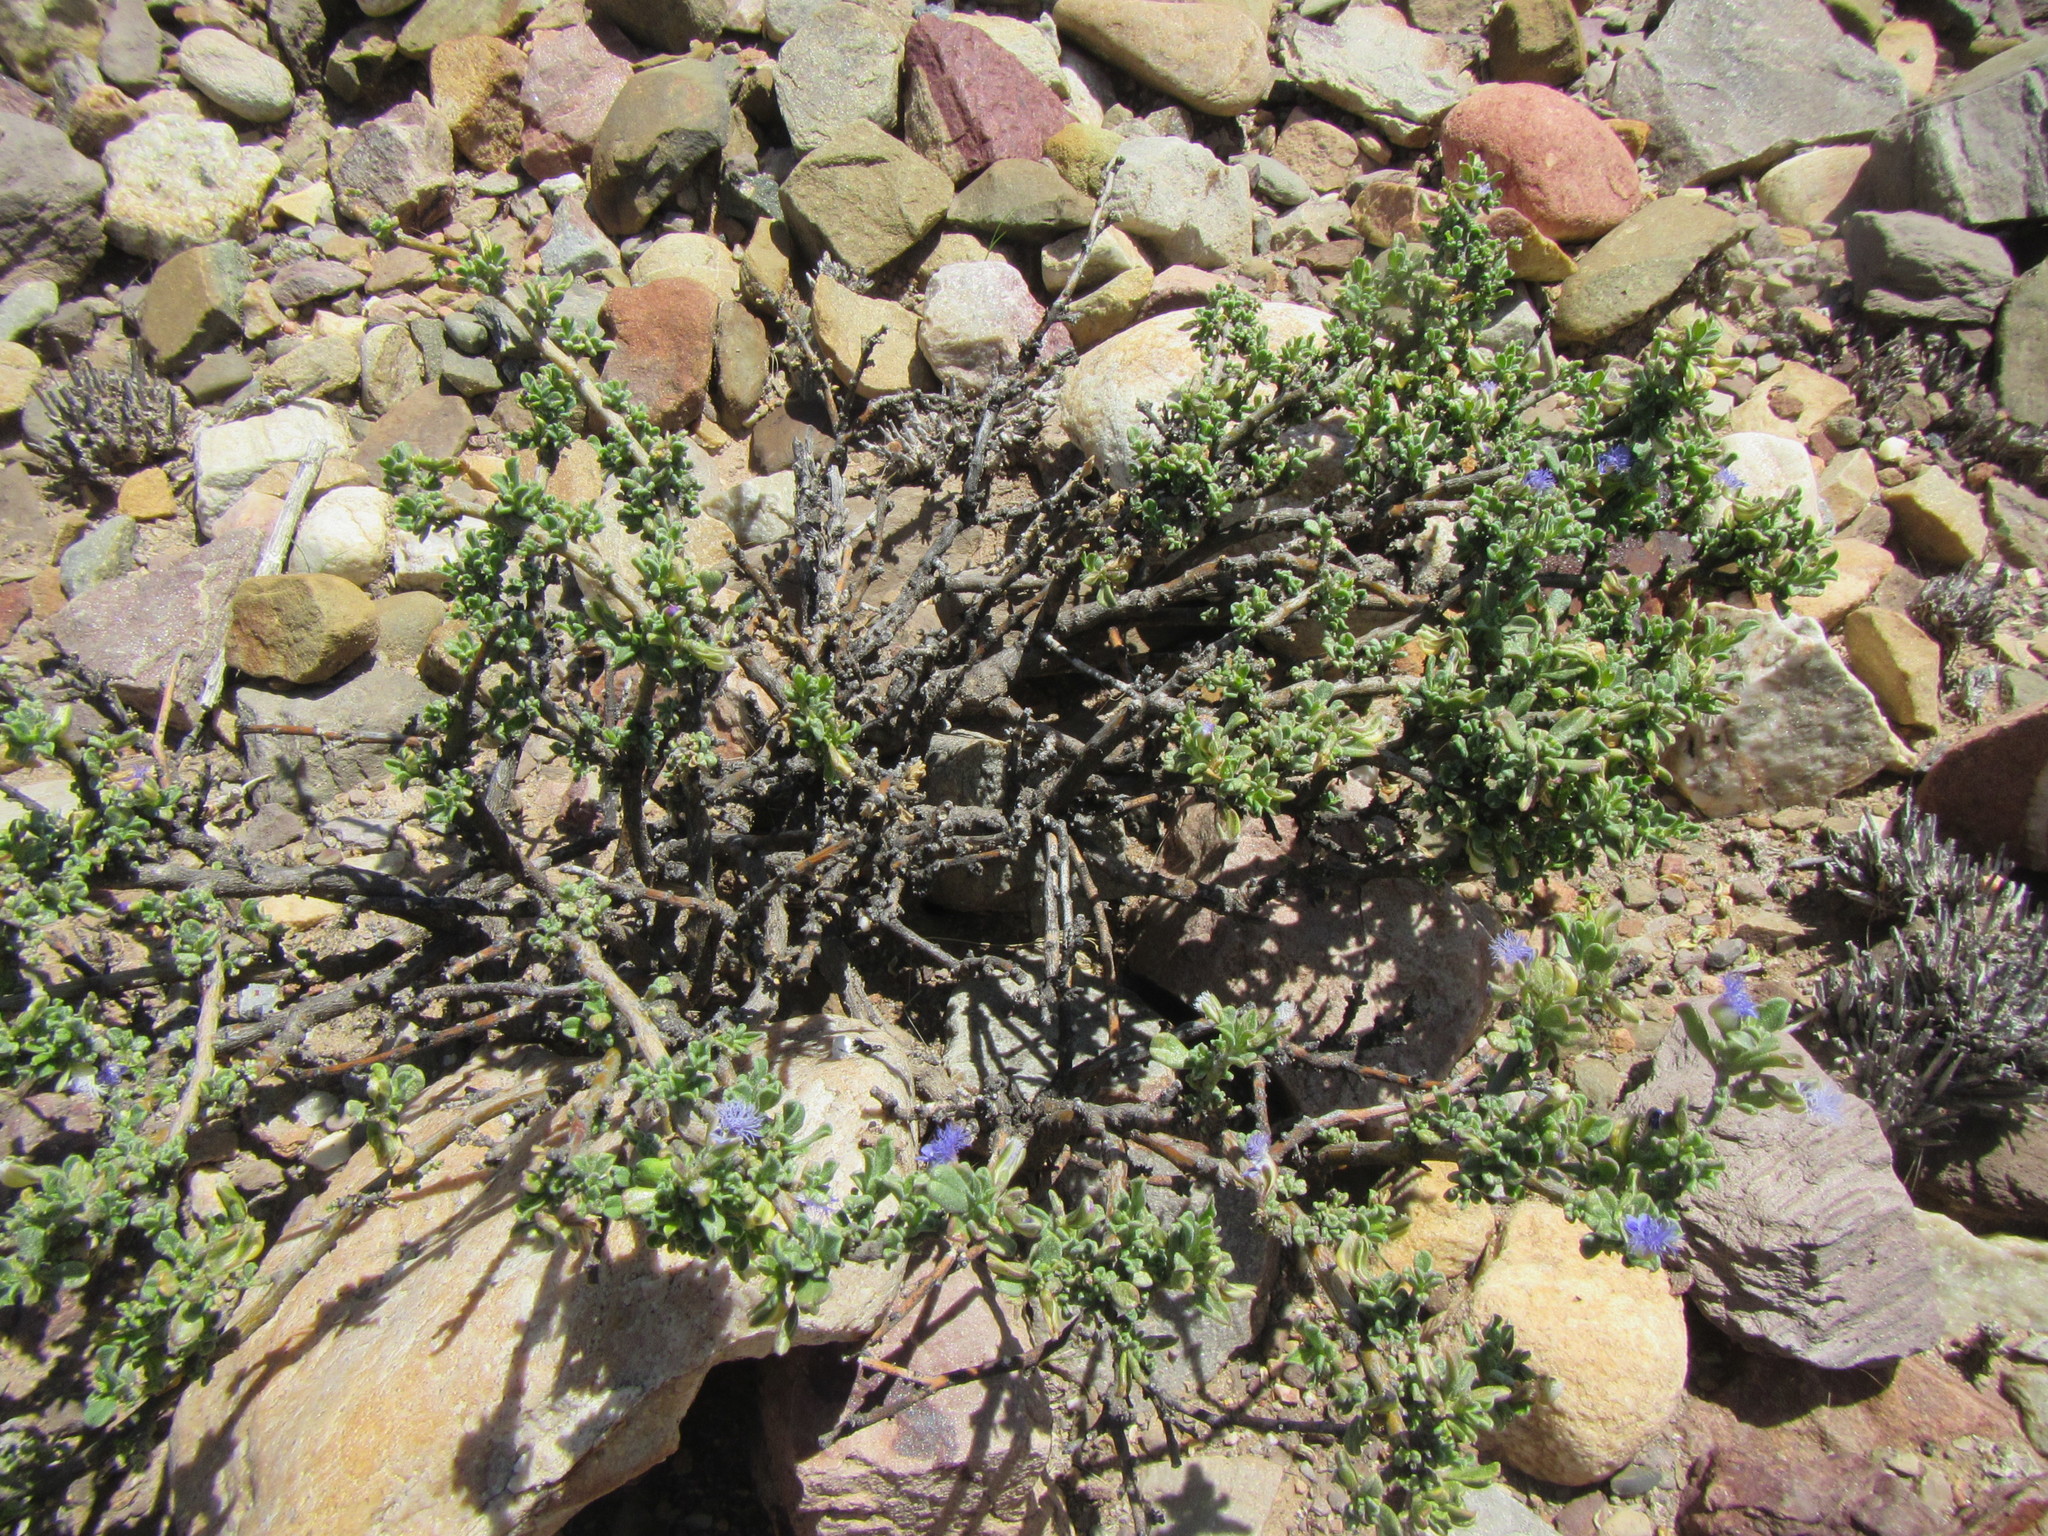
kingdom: Plantae
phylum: Tracheophyta
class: Magnoliopsida
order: Fabales
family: Polygalaceae
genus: Polygala
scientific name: Polygala asbestina
